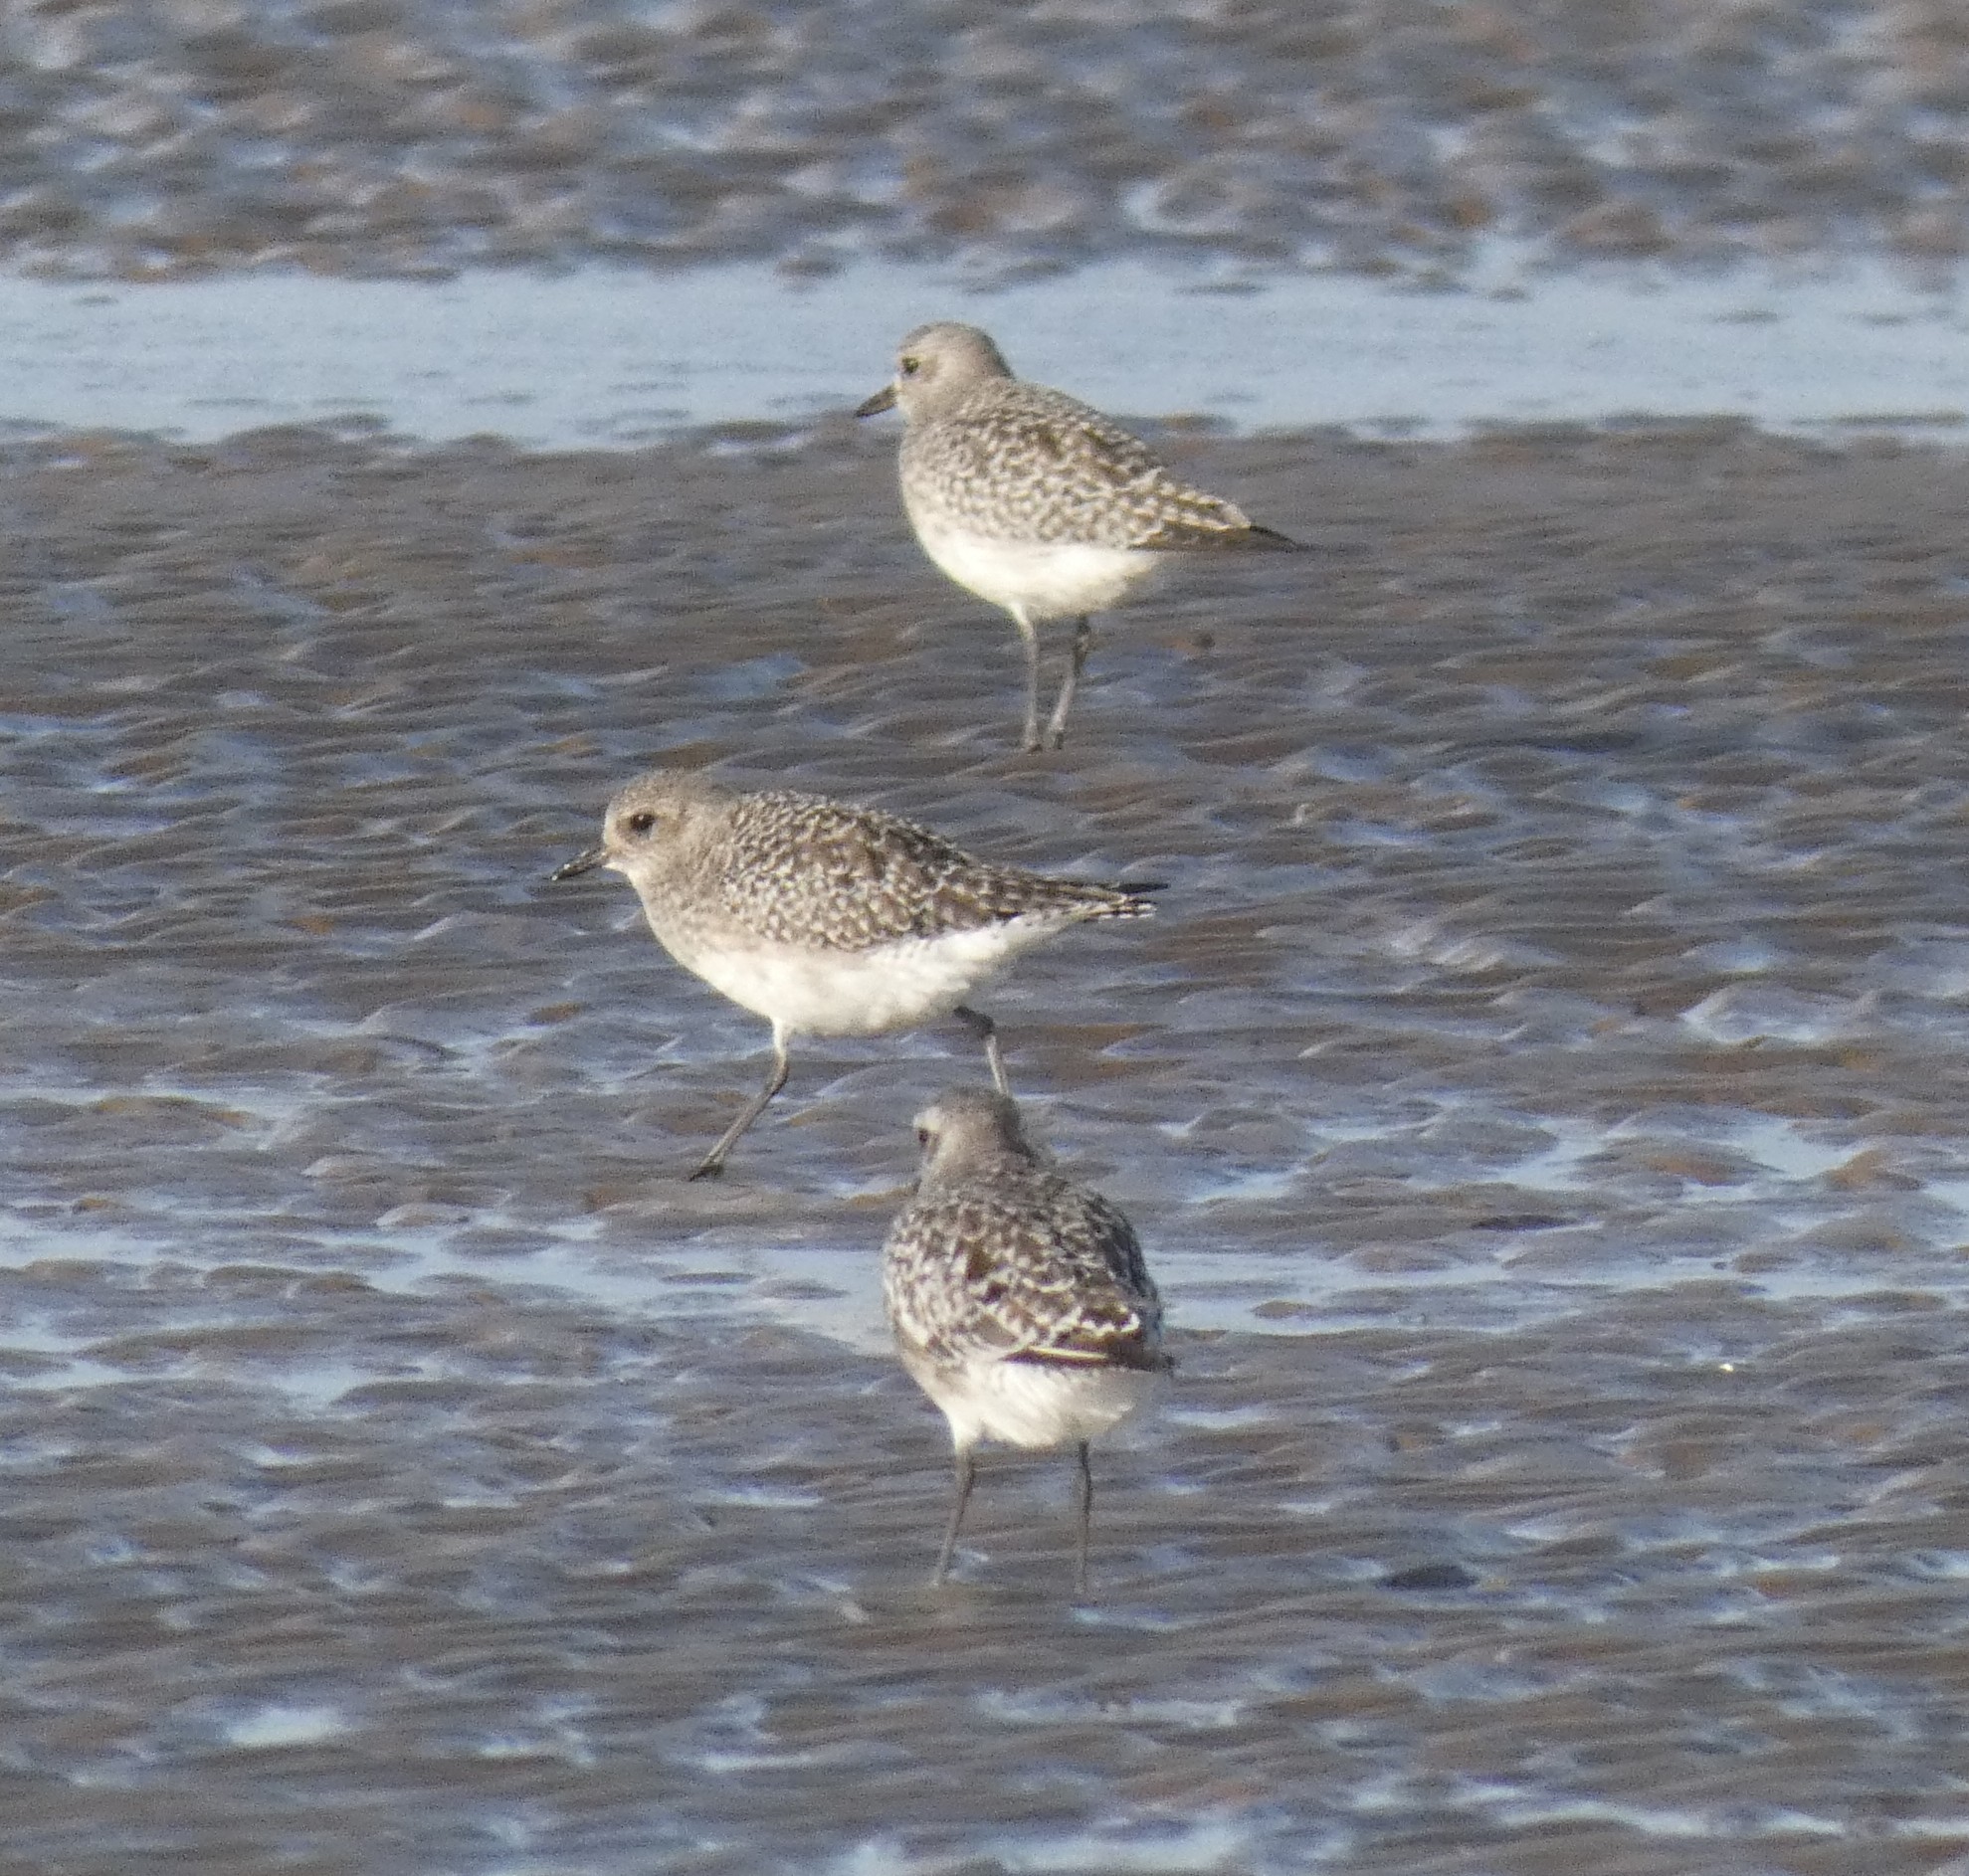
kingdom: Animalia
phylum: Chordata
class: Aves
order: Charadriiformes
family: Charadriidae
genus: Pluvialis
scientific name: Pluvialis squatarola
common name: Grey plover
